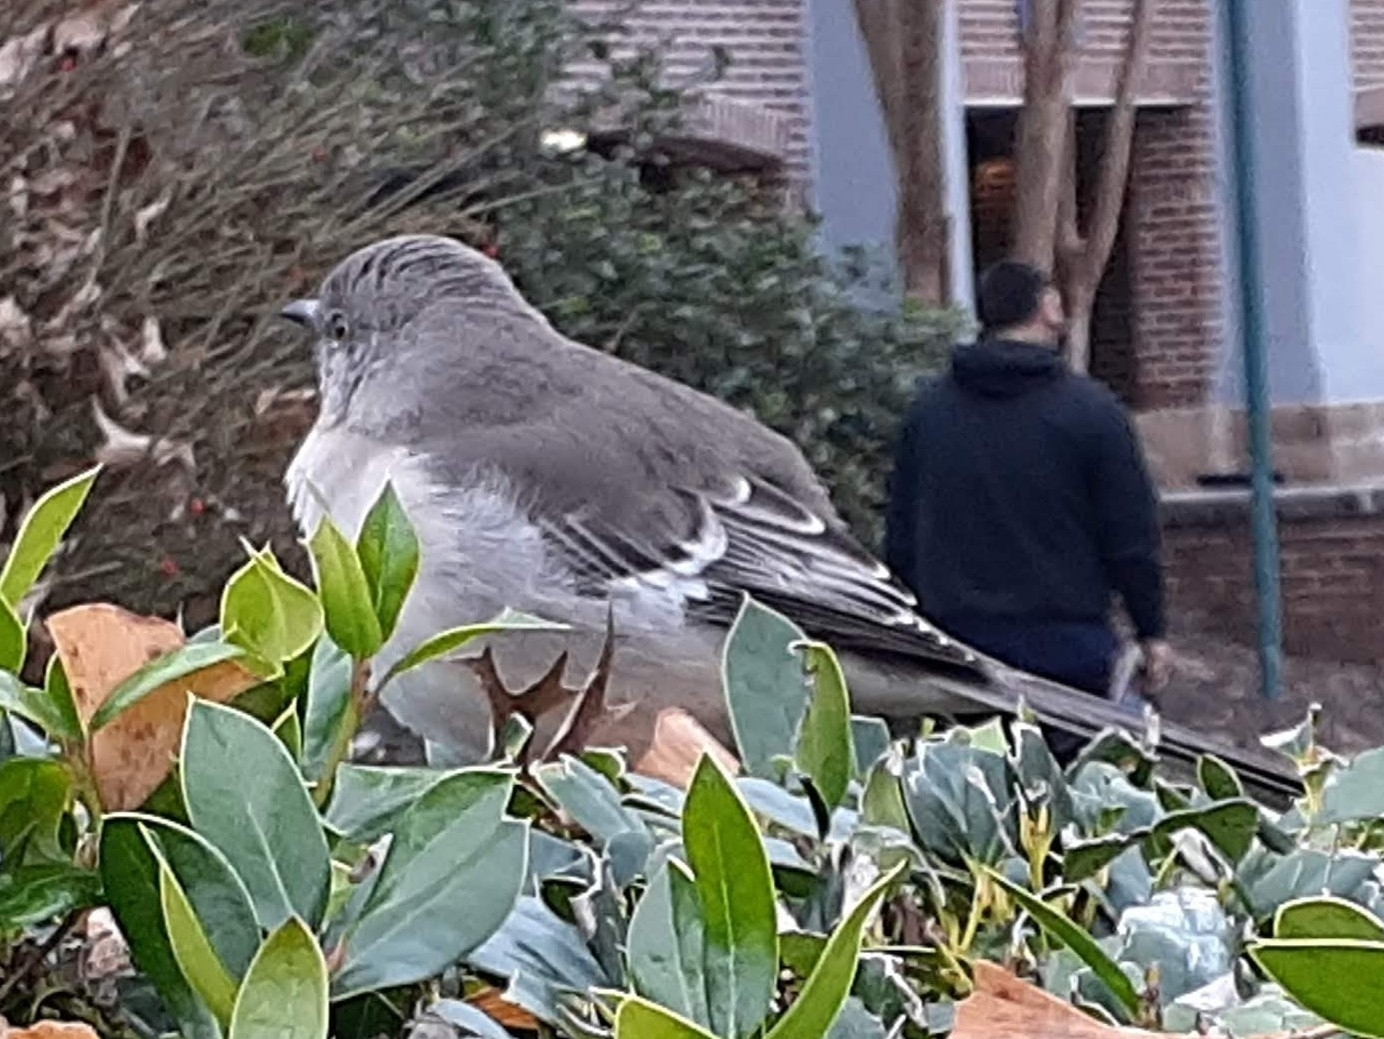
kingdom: Animalia
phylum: Chordata
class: Aves
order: Passeriformes
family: Mimidae
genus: Mimus
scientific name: Mimus polyglottos
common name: Northern mockingbird
